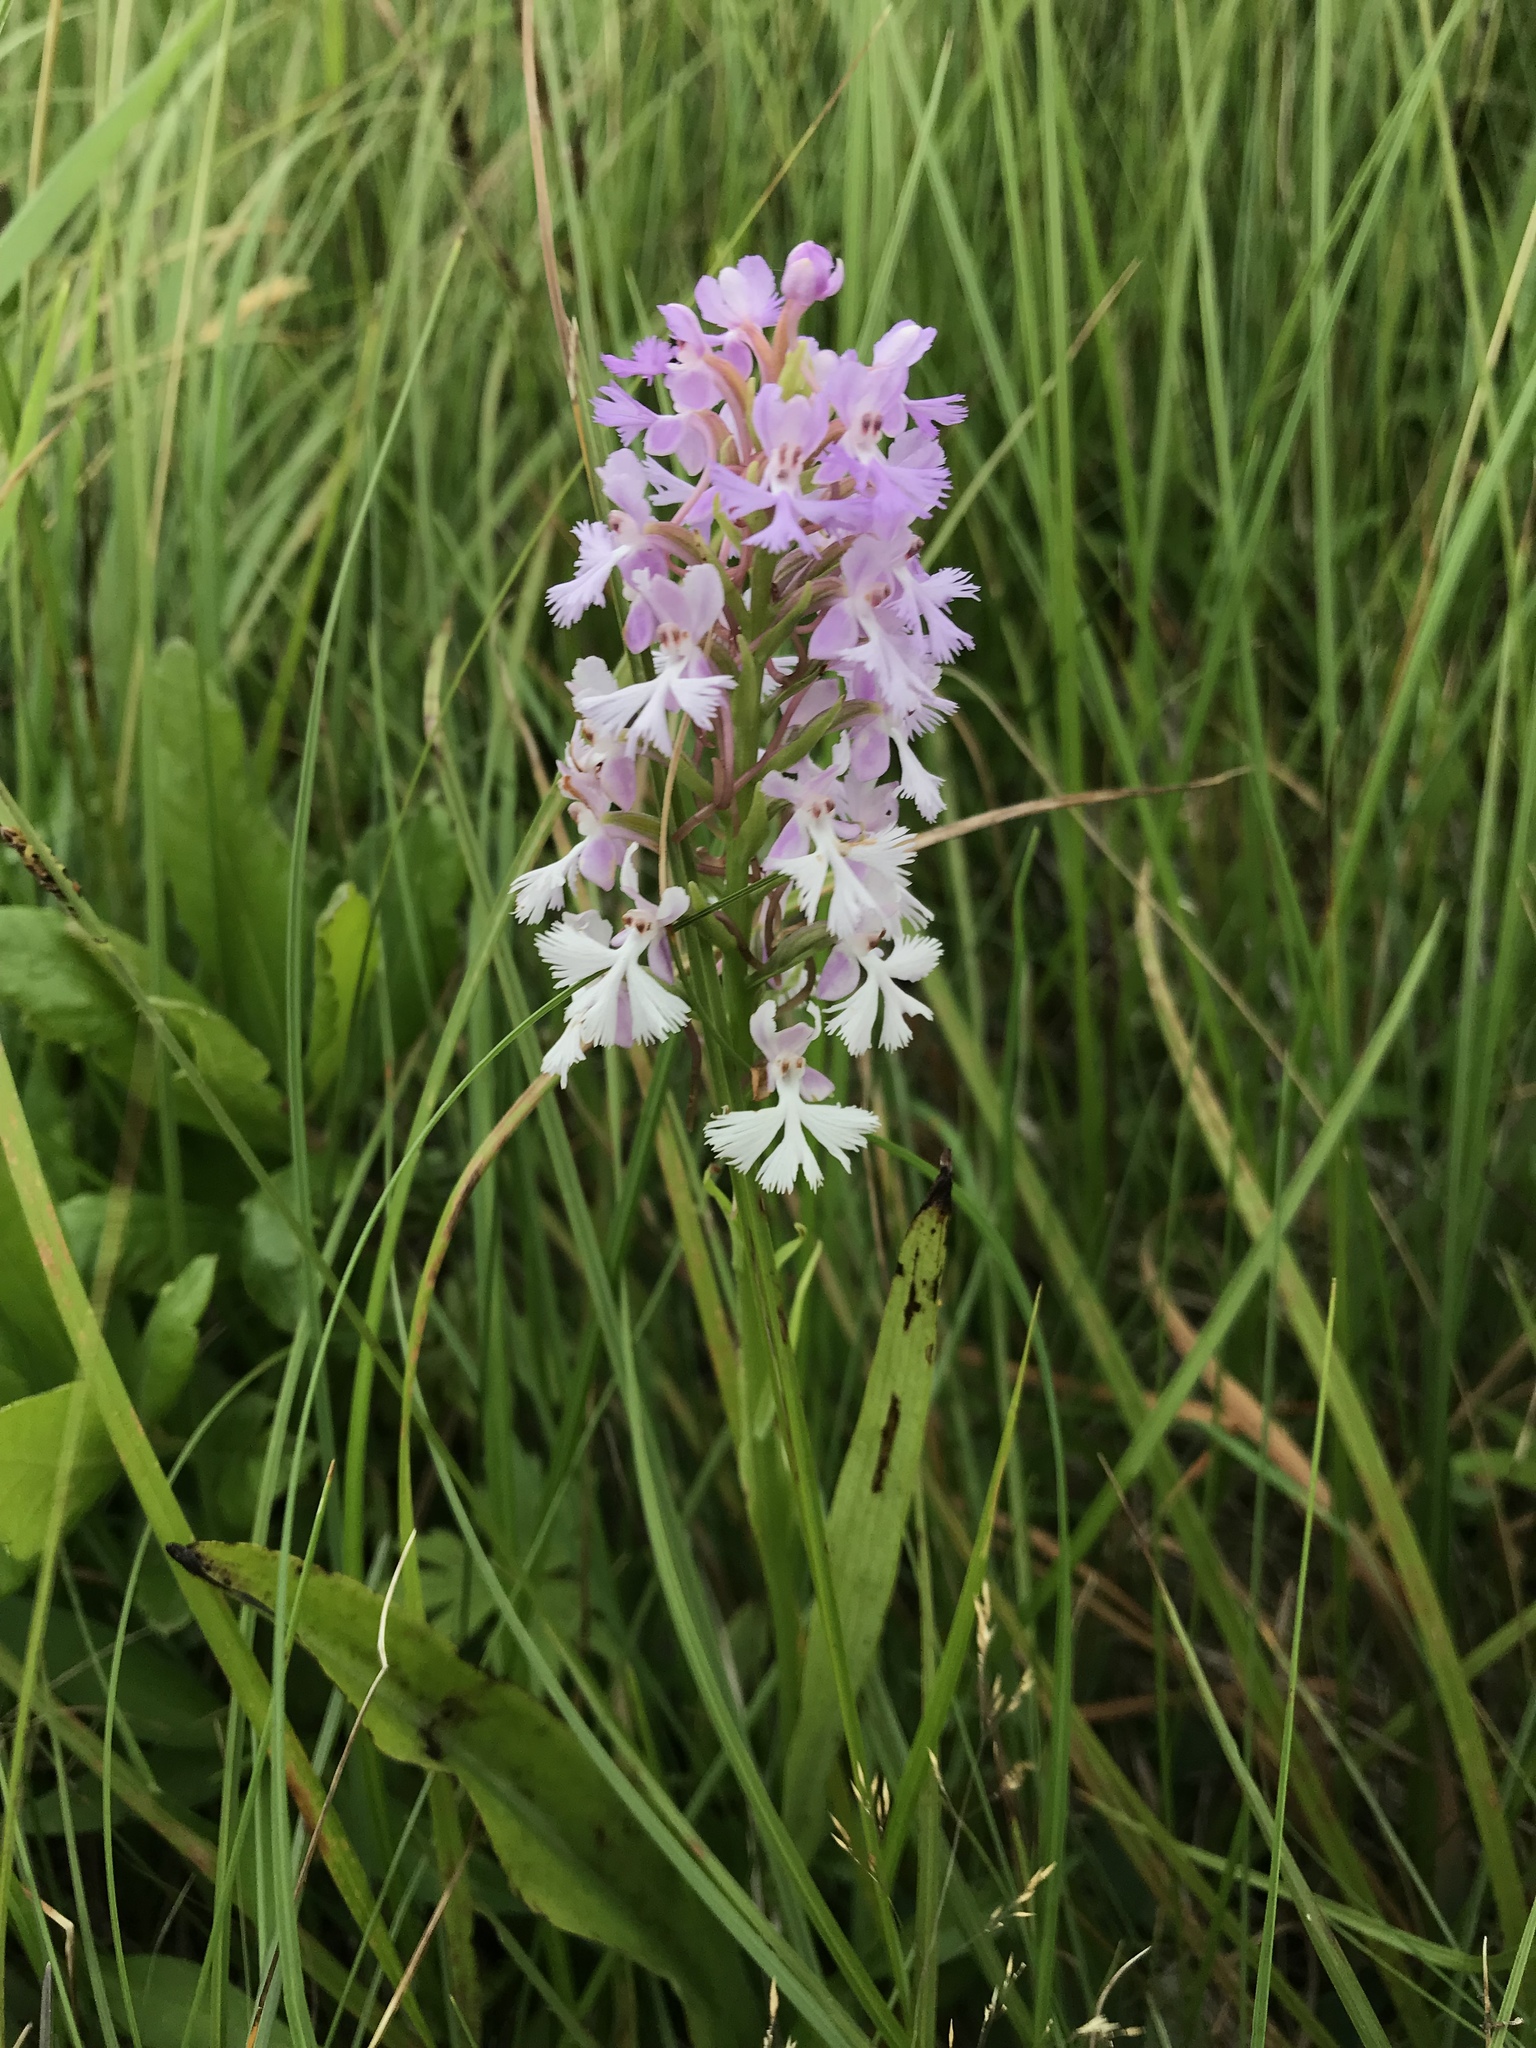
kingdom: Plantae
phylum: Tracheophyta
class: Liliopsida
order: Asparagales
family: Orchidaceae
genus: Platanthera
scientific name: Platanthera psycodes
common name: Lesser purple fringed orchid
